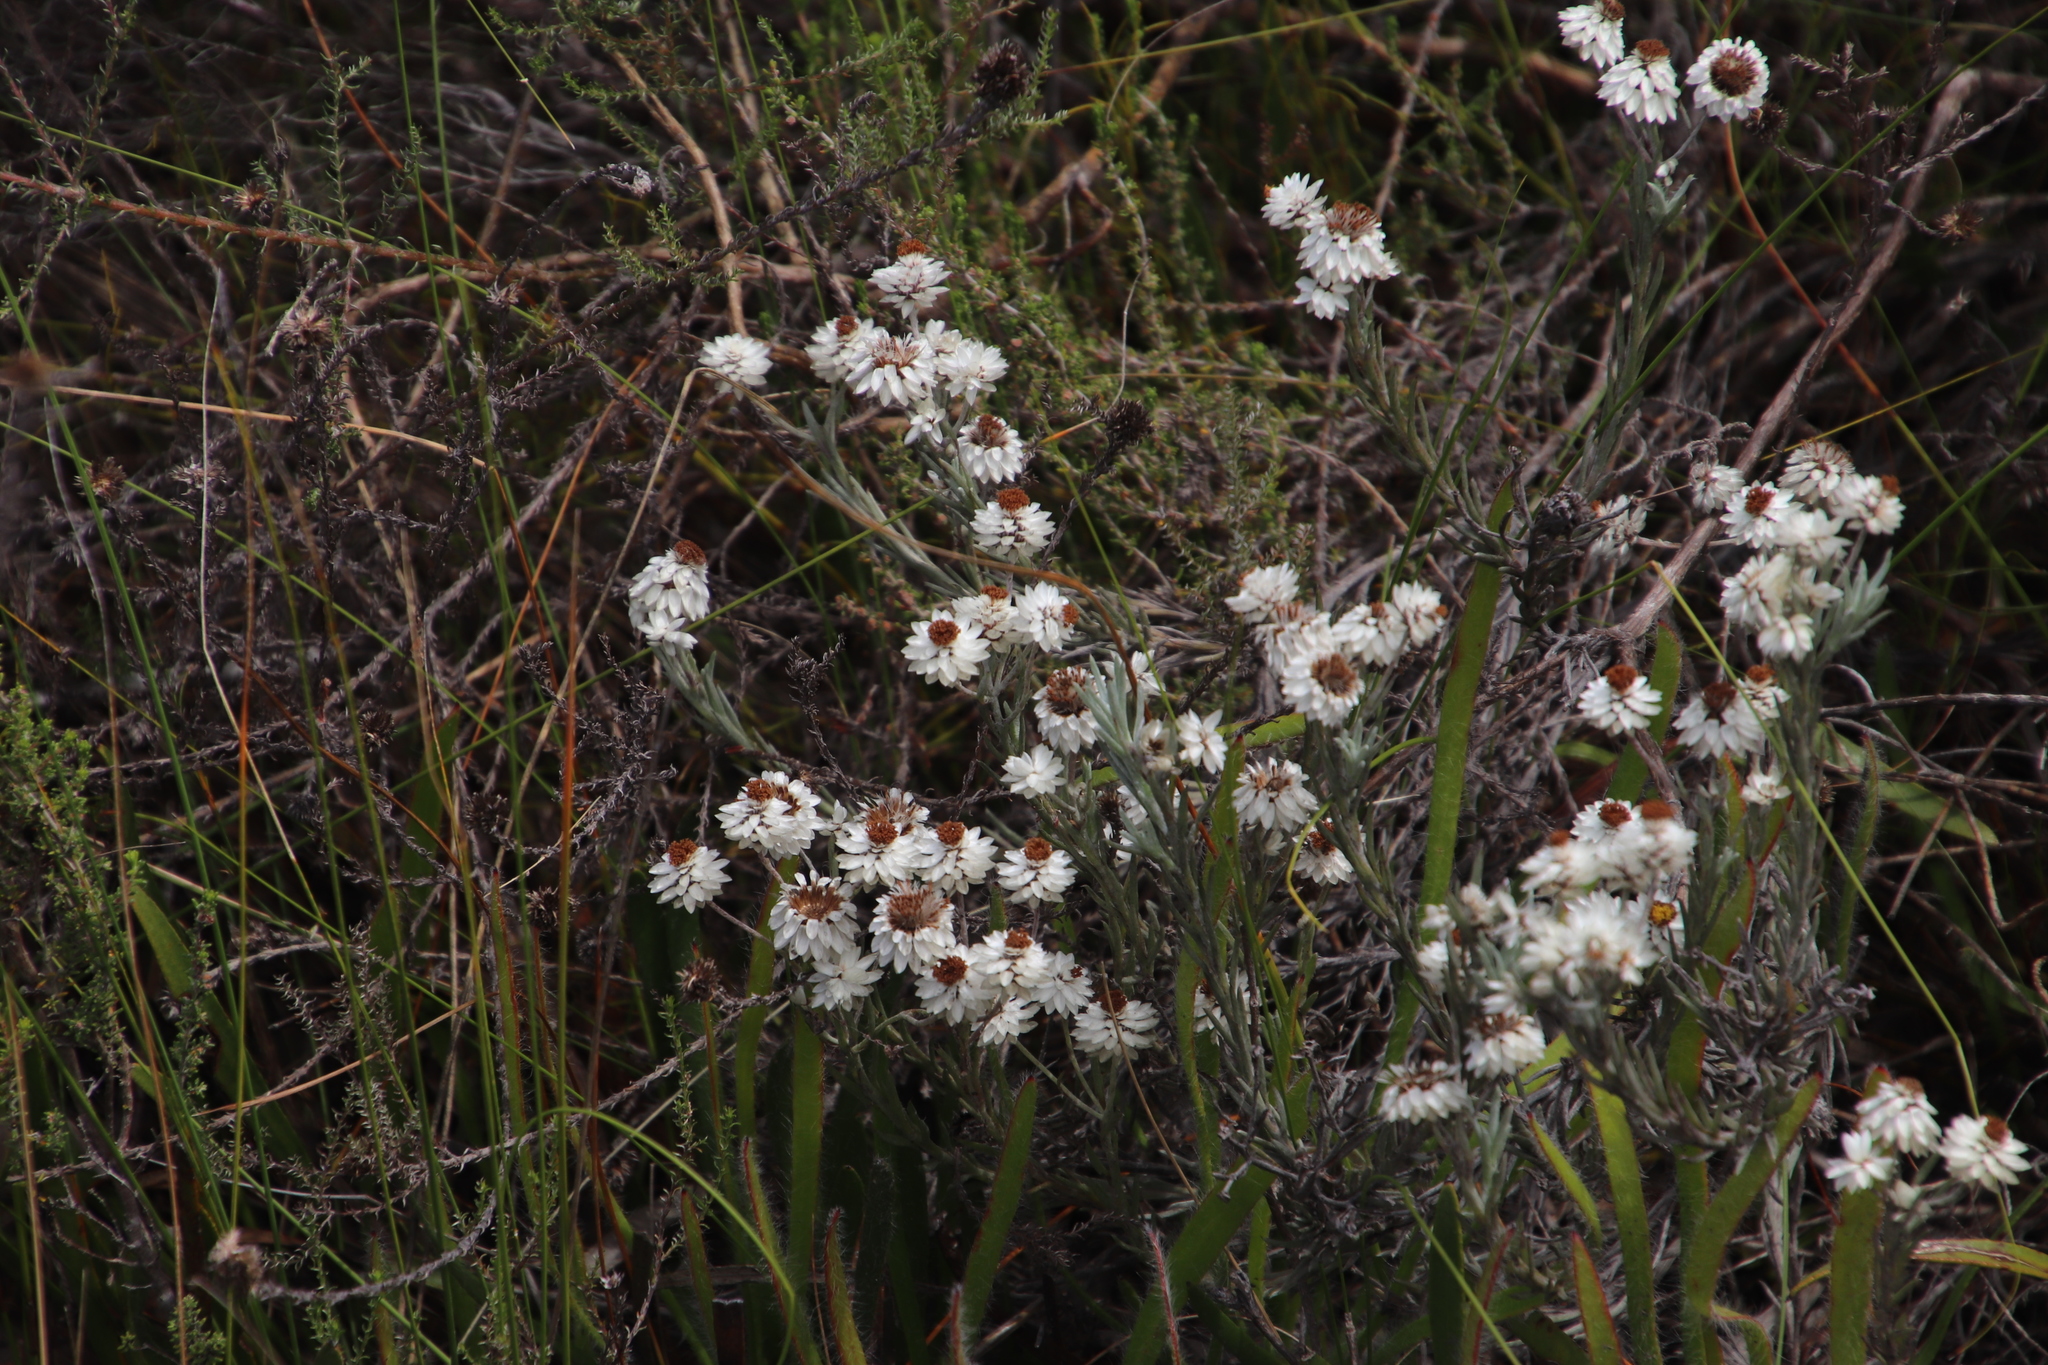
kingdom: Plantae
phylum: Tracheophyta
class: Magnoliopsida
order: Asterales
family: Asteraceae
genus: Achyranthemum
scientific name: Achyranthemum paniculatum
